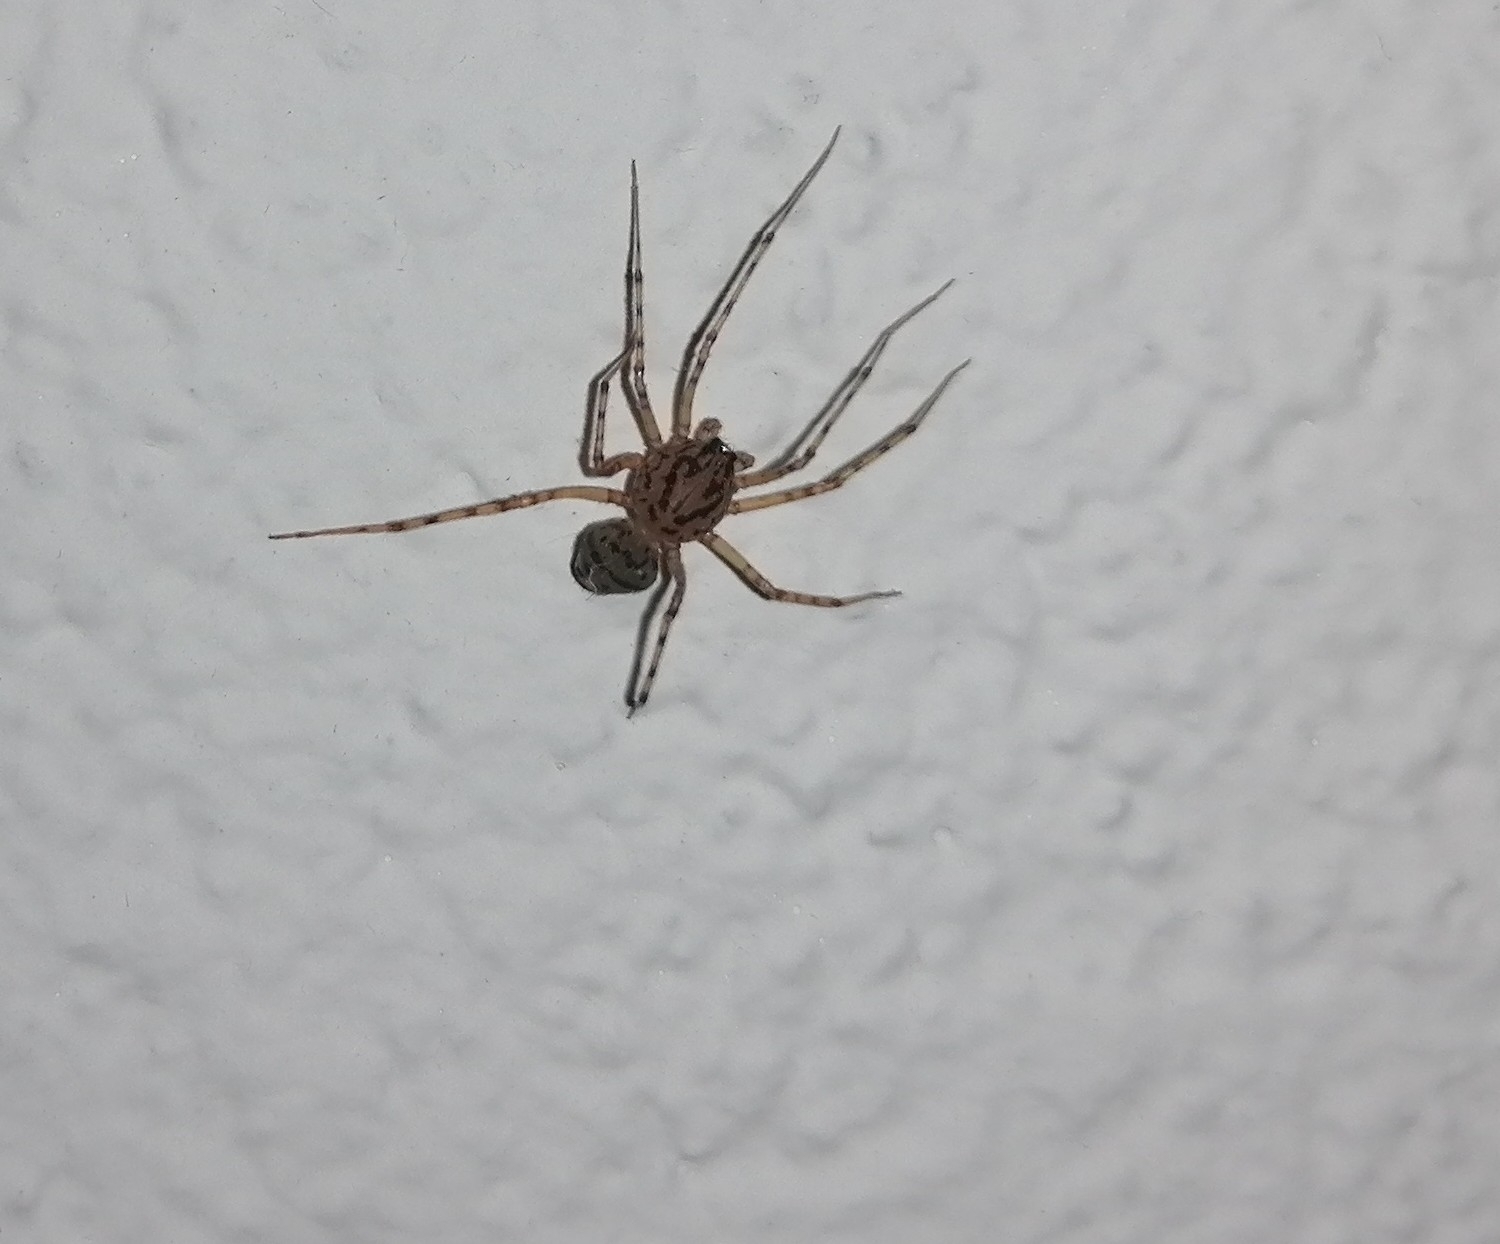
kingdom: Animalia
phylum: Arthropoda
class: Arachnida
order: Araneae
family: Scytodidae
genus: Scytodes
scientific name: Scytodes thoracica
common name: Spitting spider
